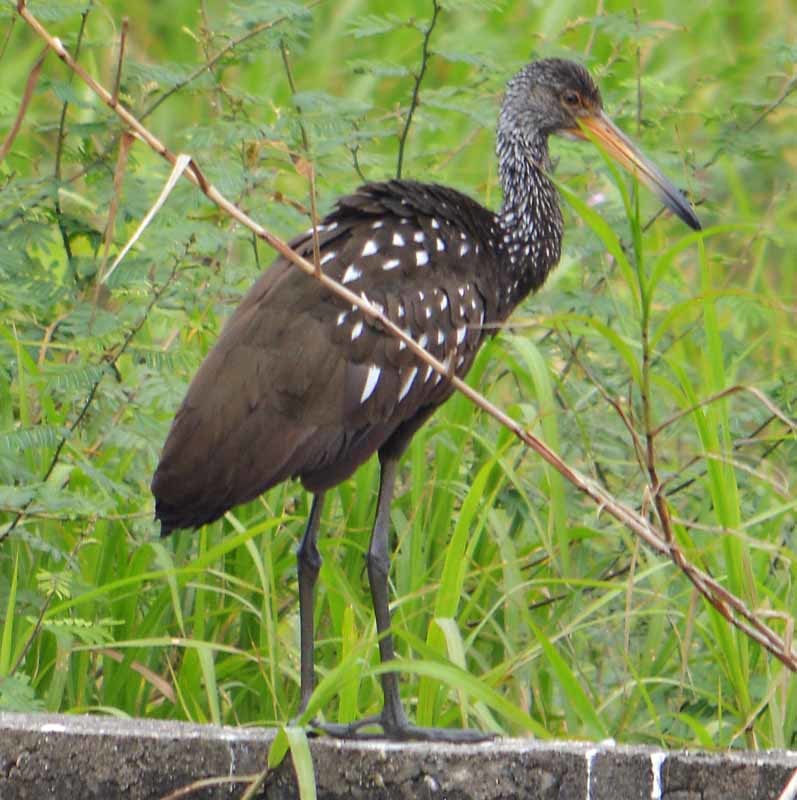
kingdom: Animalia
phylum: Chordata
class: Aves
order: Gruiformes
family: Aramidae
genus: Aramus
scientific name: Aramus guarauna
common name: Limpkin
